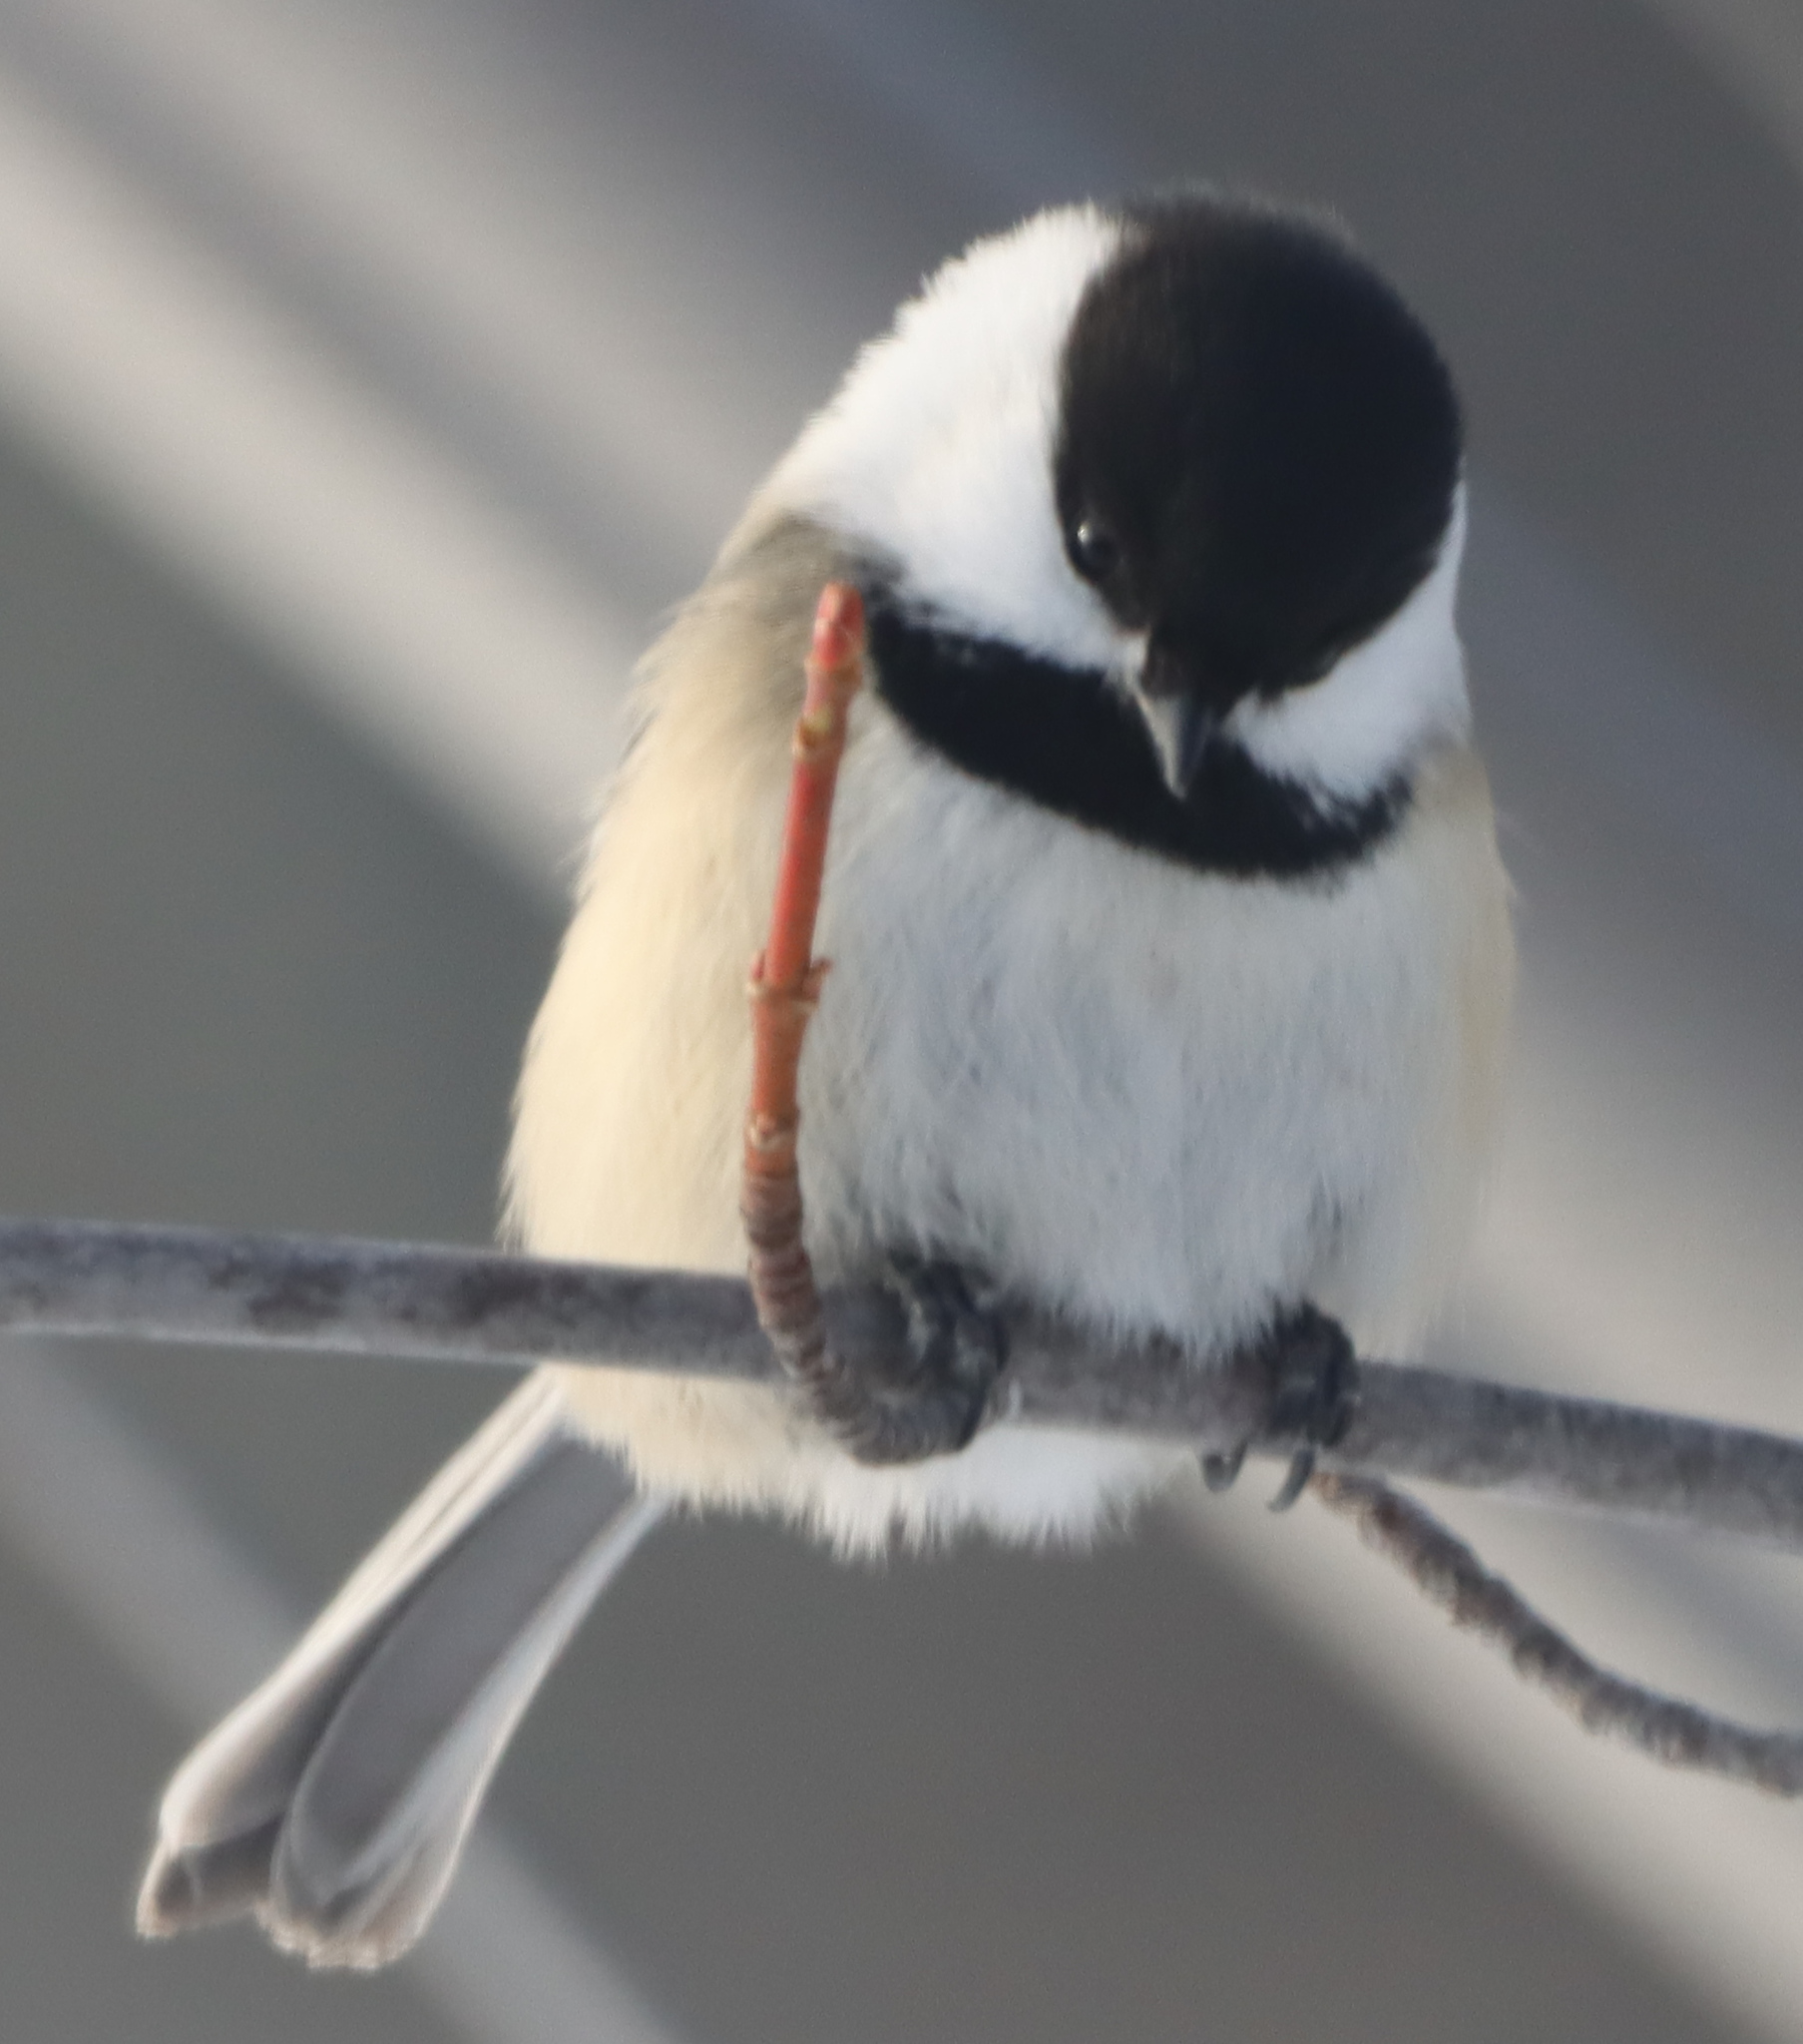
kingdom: Animalia
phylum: Chordata
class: Aves
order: Passeriformes
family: Paridae
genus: Poecile
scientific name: Poecile atricapillus
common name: Black-capped chickadee
